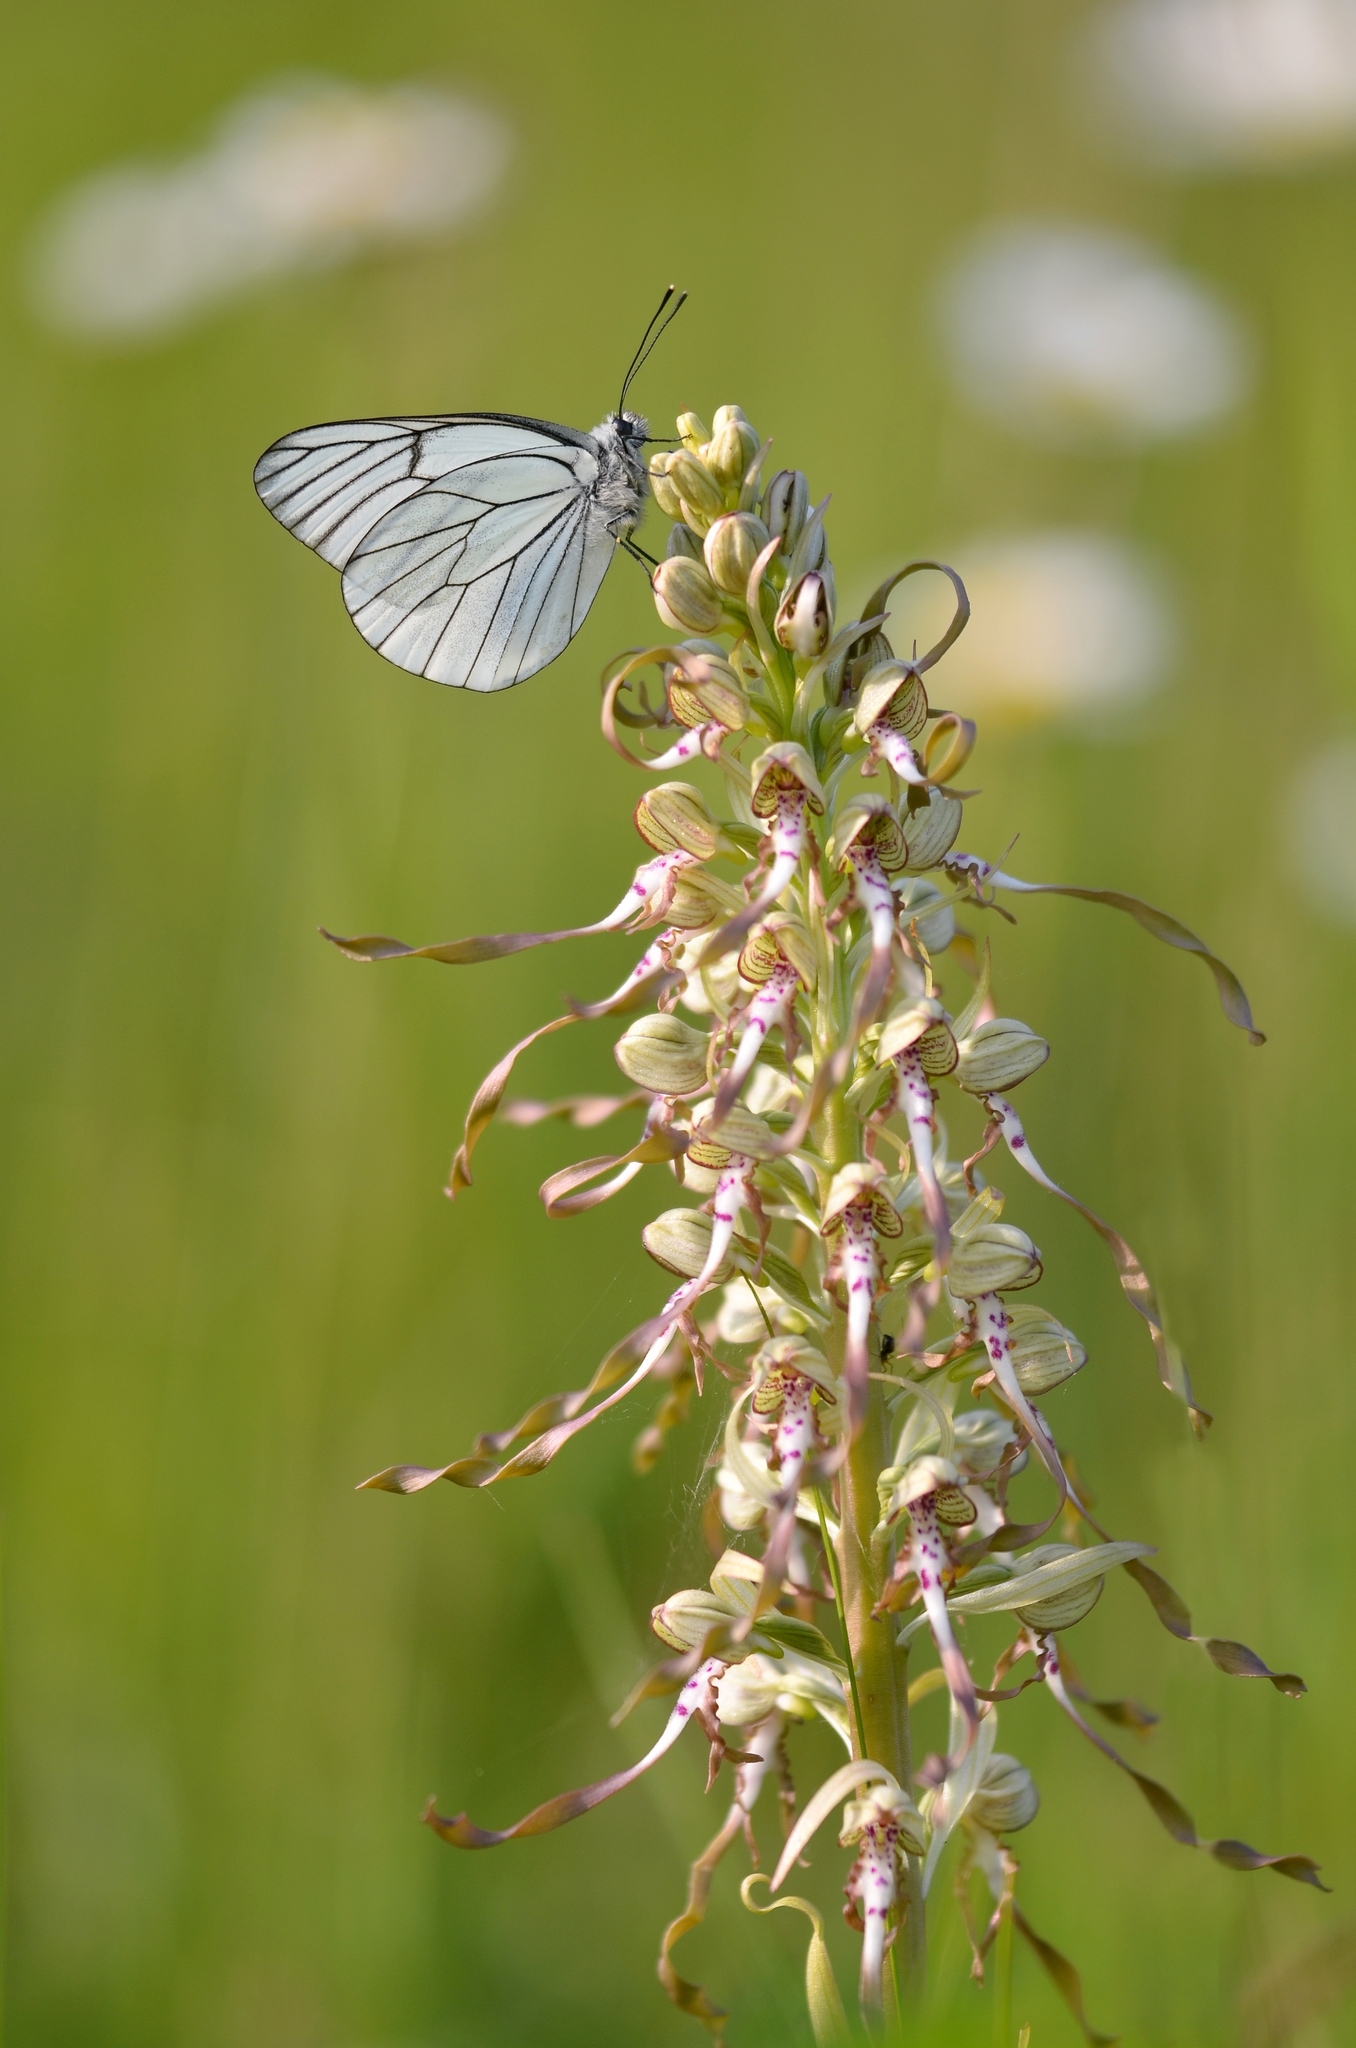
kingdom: Plantae
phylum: Tracheophyta
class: Liliopsida
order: Asparagales
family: Orchidaceae
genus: Himantoglossum
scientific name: Himantoglossum hircinum
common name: Lizard orchid
